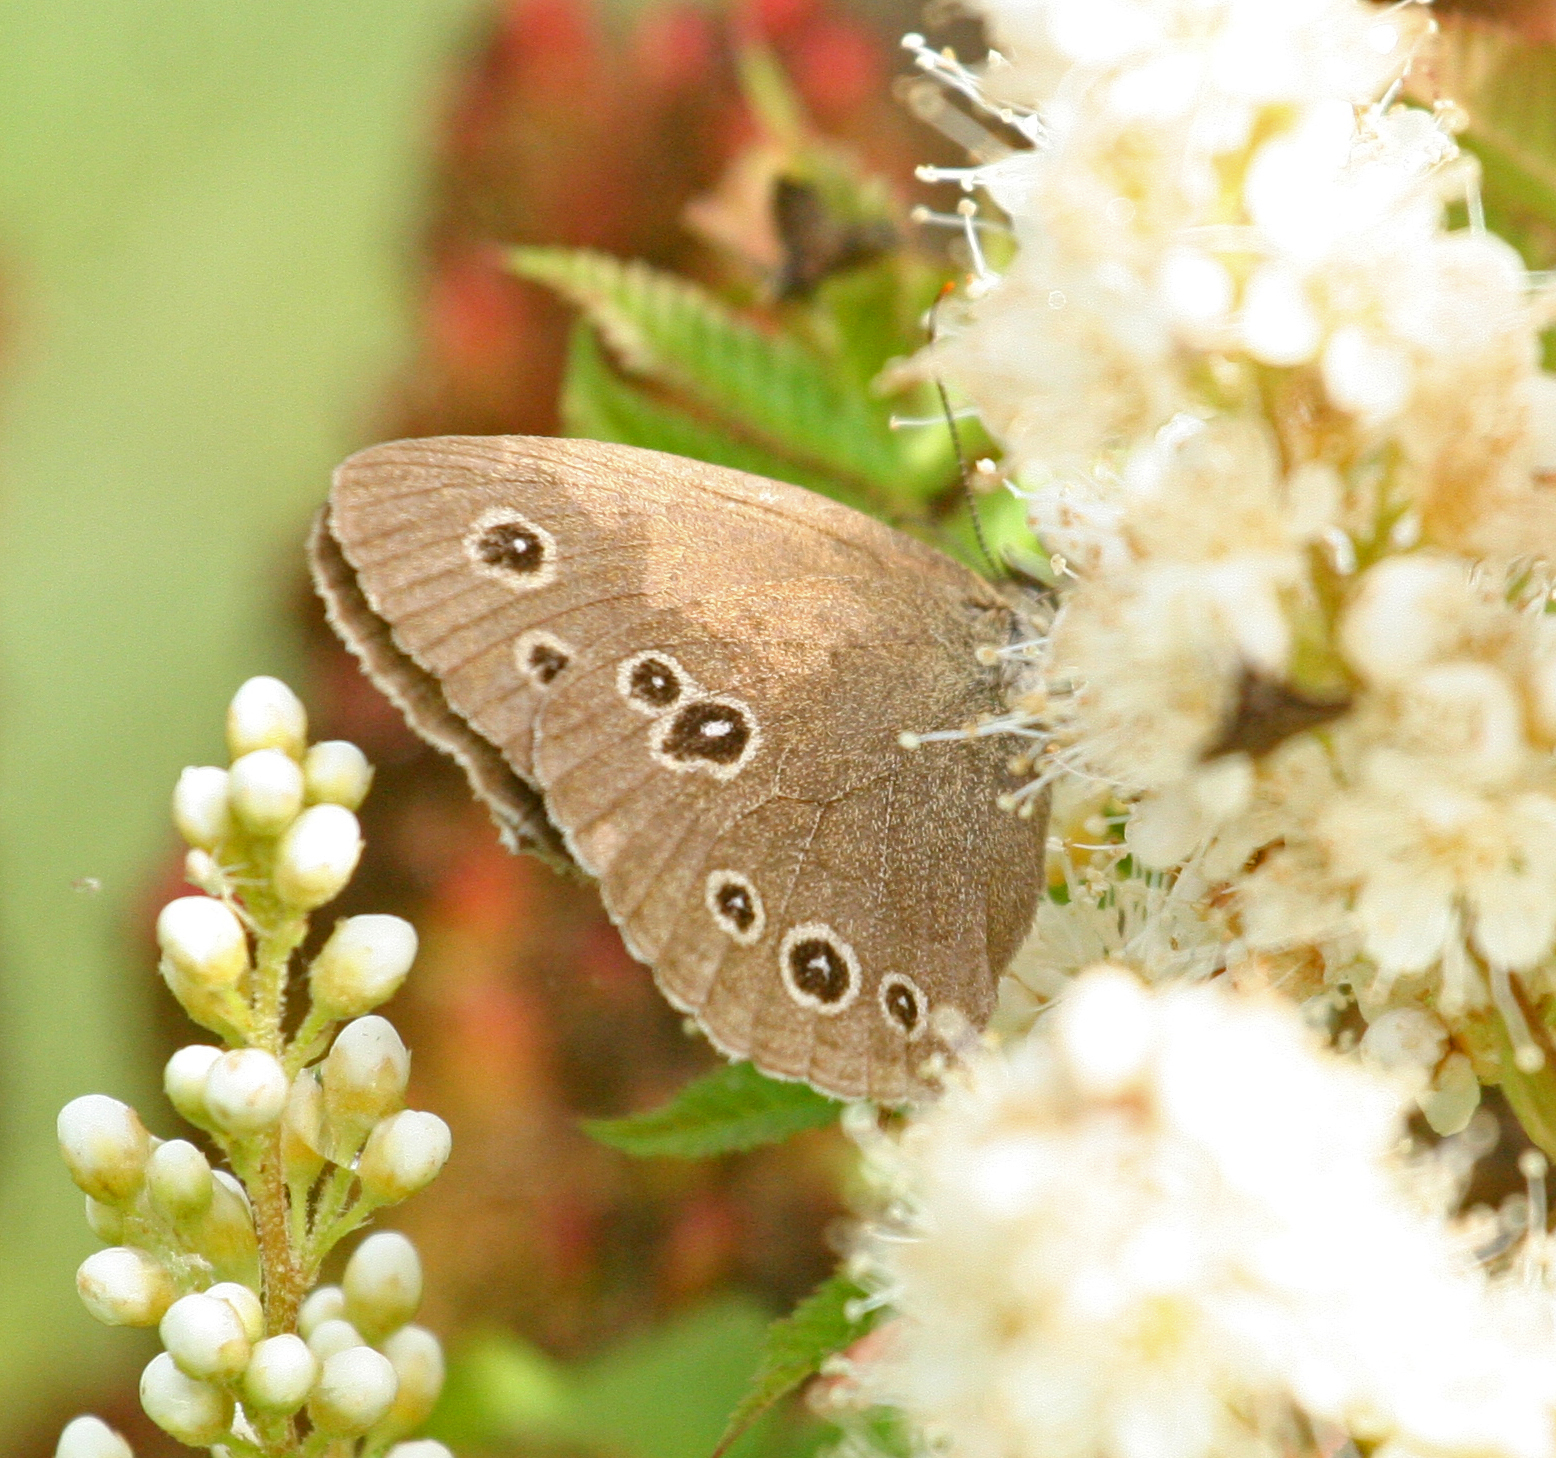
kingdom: Animalia
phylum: Arthropoda
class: Insecta
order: Lepidoptera
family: Nymphalidae
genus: Aphantopus
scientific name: Aphantopus hyperantus
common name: Ringlet
